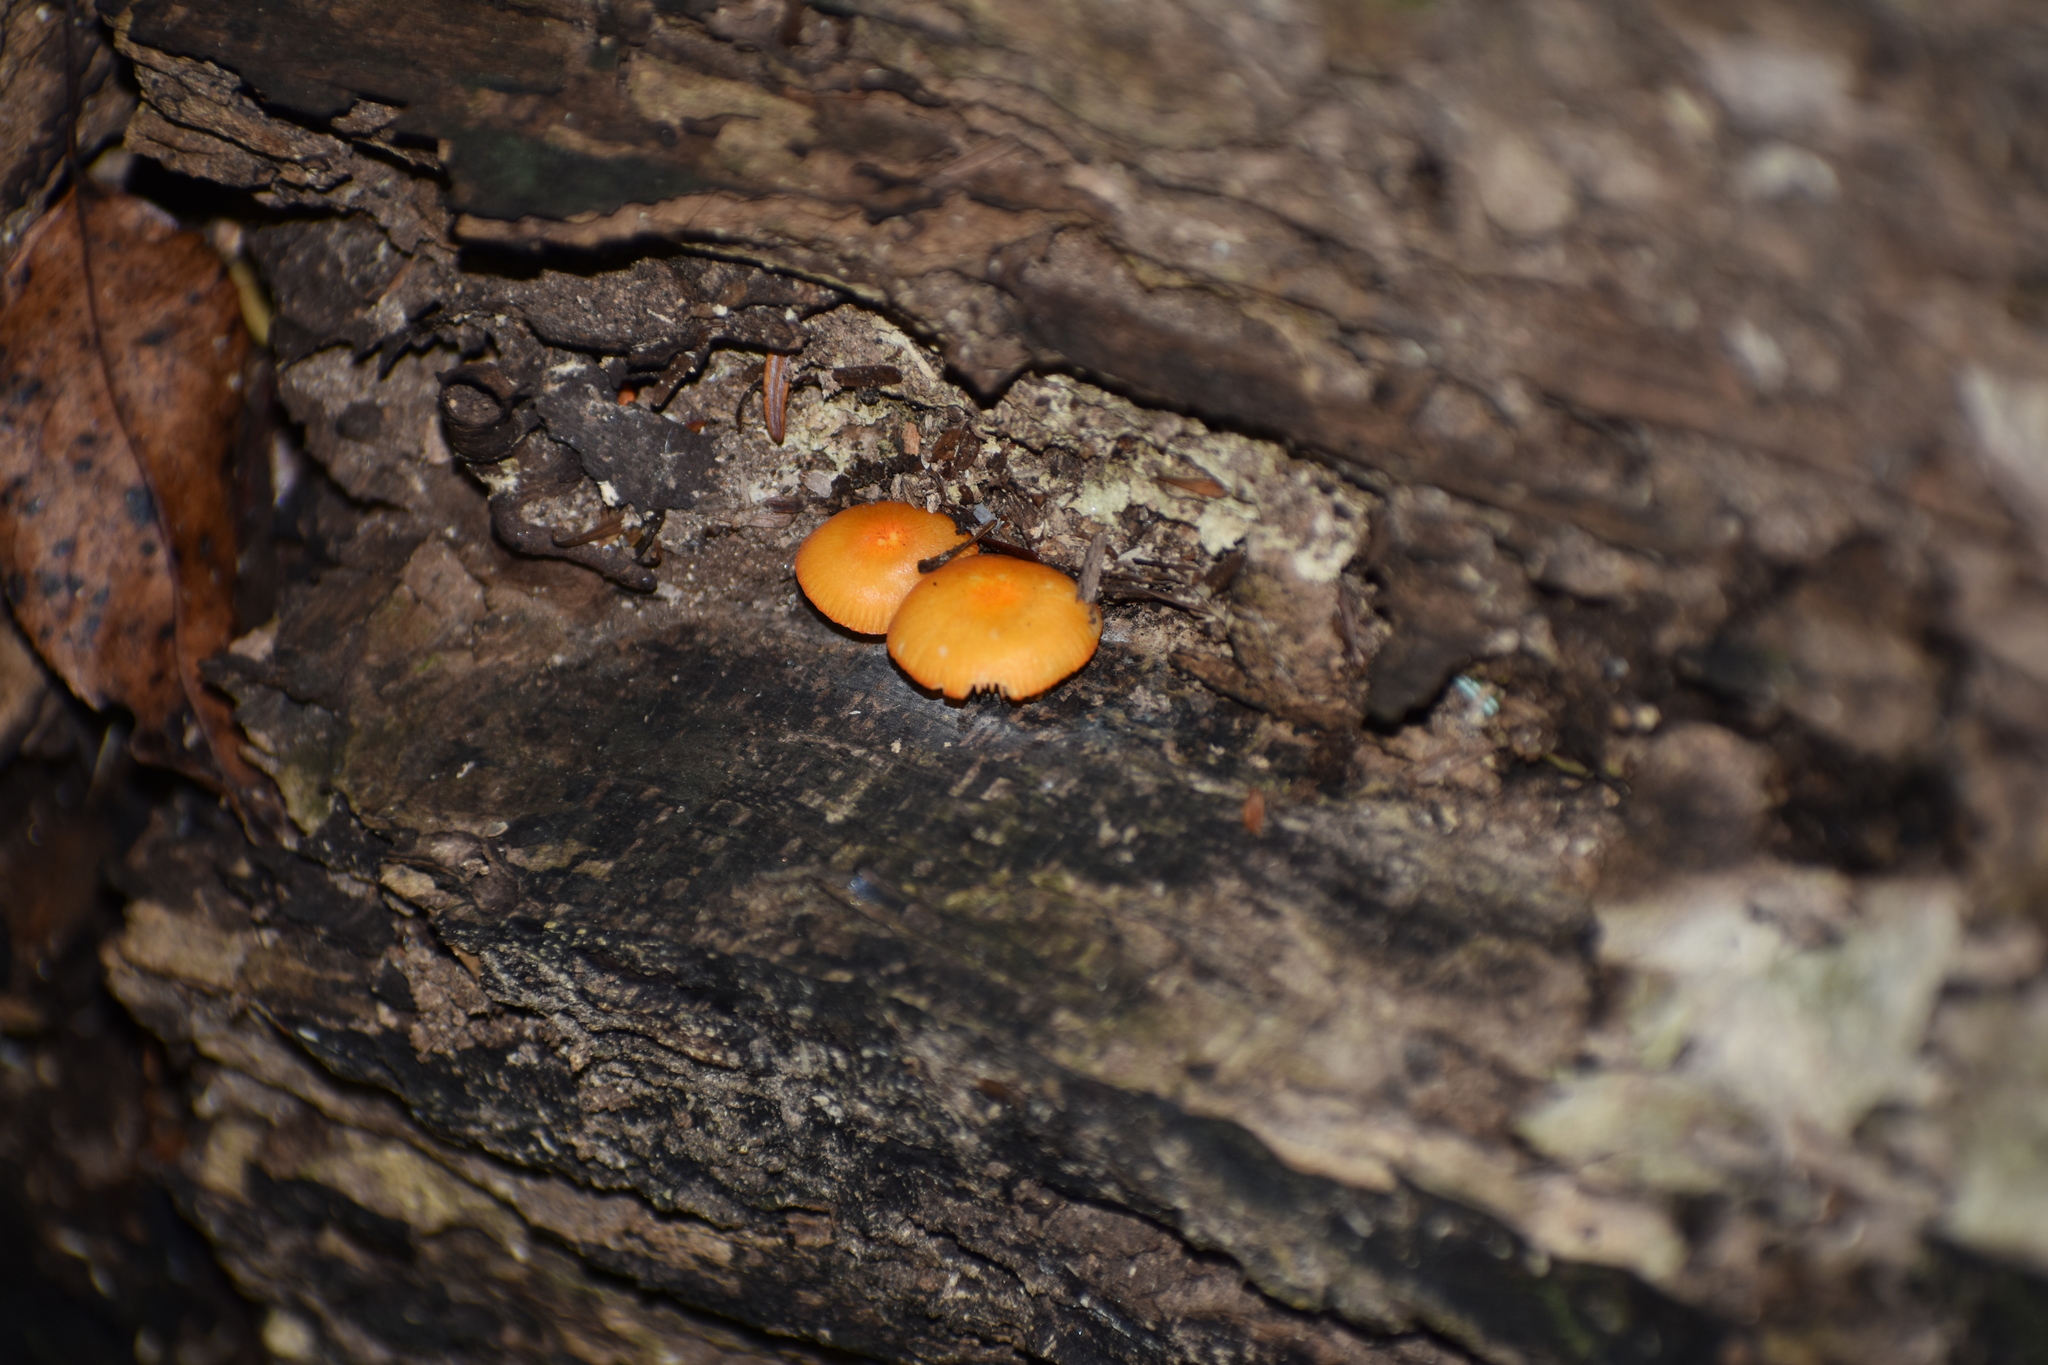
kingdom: Fungi
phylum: Basidiomycota
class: Agaricomycetes
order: Agaricales
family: Mycenaceae
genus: Mycena
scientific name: Mycena leaiana
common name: Orange mycena
